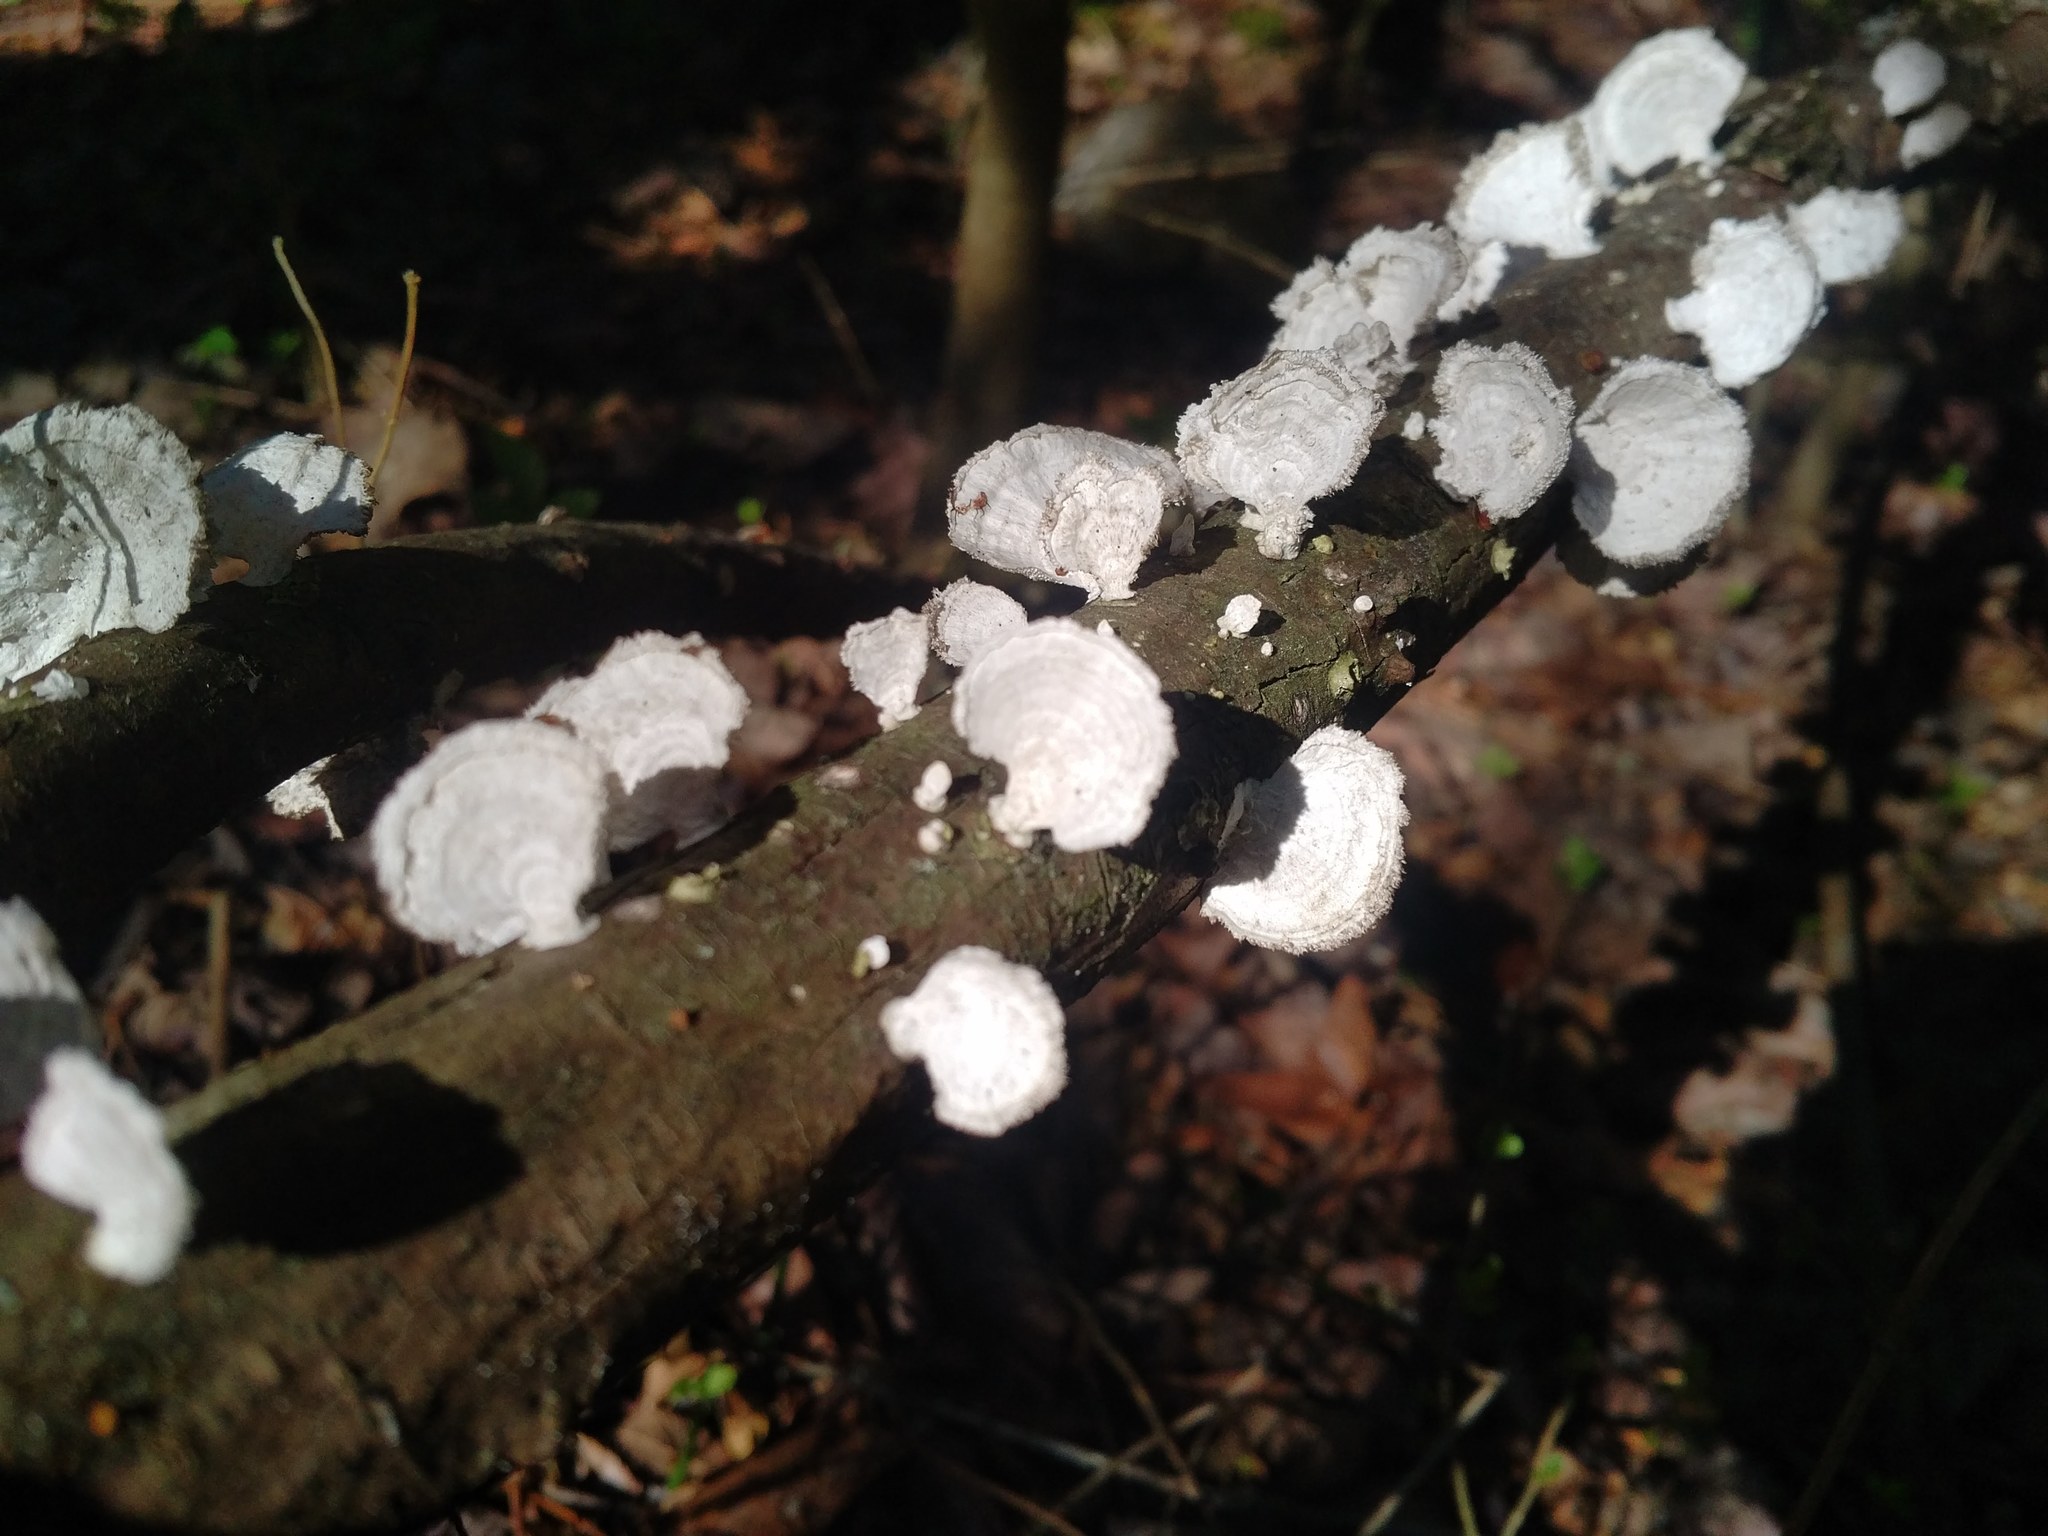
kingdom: Fungi
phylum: Basidiomycota
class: Agaricomycetes
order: Polyporales
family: Polyporaceae
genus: Poronidulus
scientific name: Poronidulus conchifer
